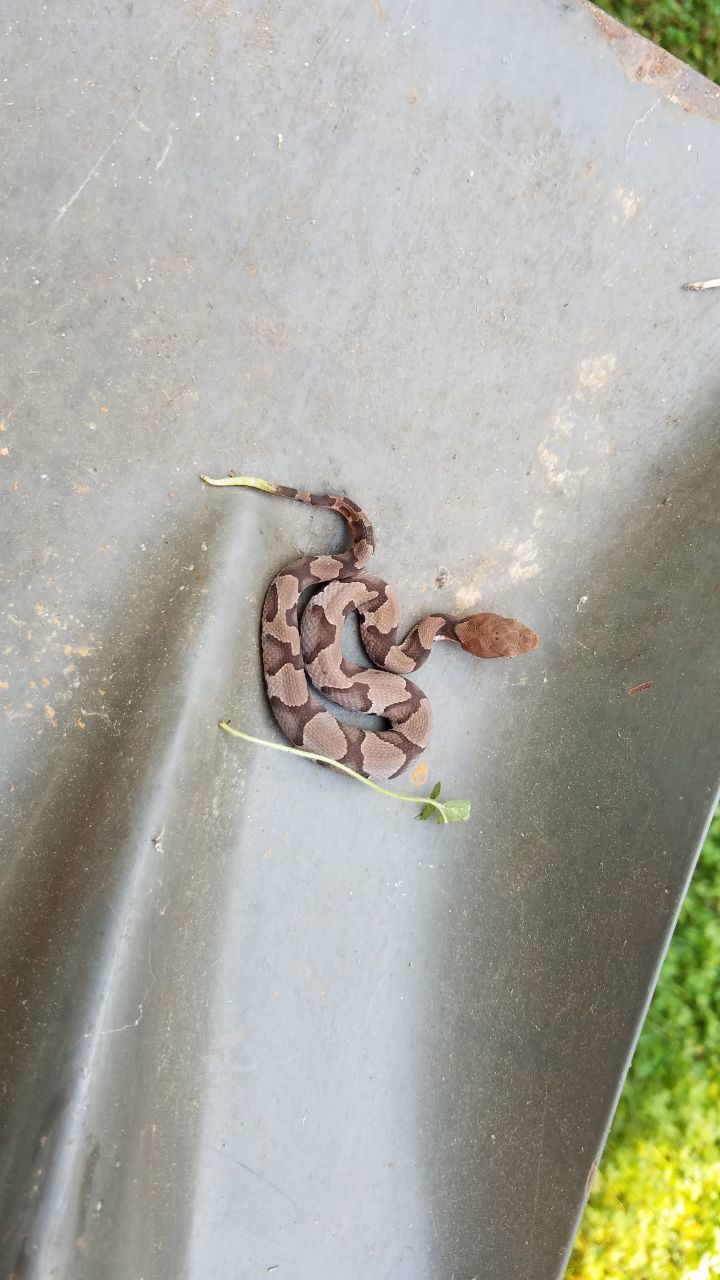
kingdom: Animalia
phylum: Chordata
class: Squamata
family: Viperidae
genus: Agkistrodon
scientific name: Agkistrodon contortrix
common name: Northern copperhead
